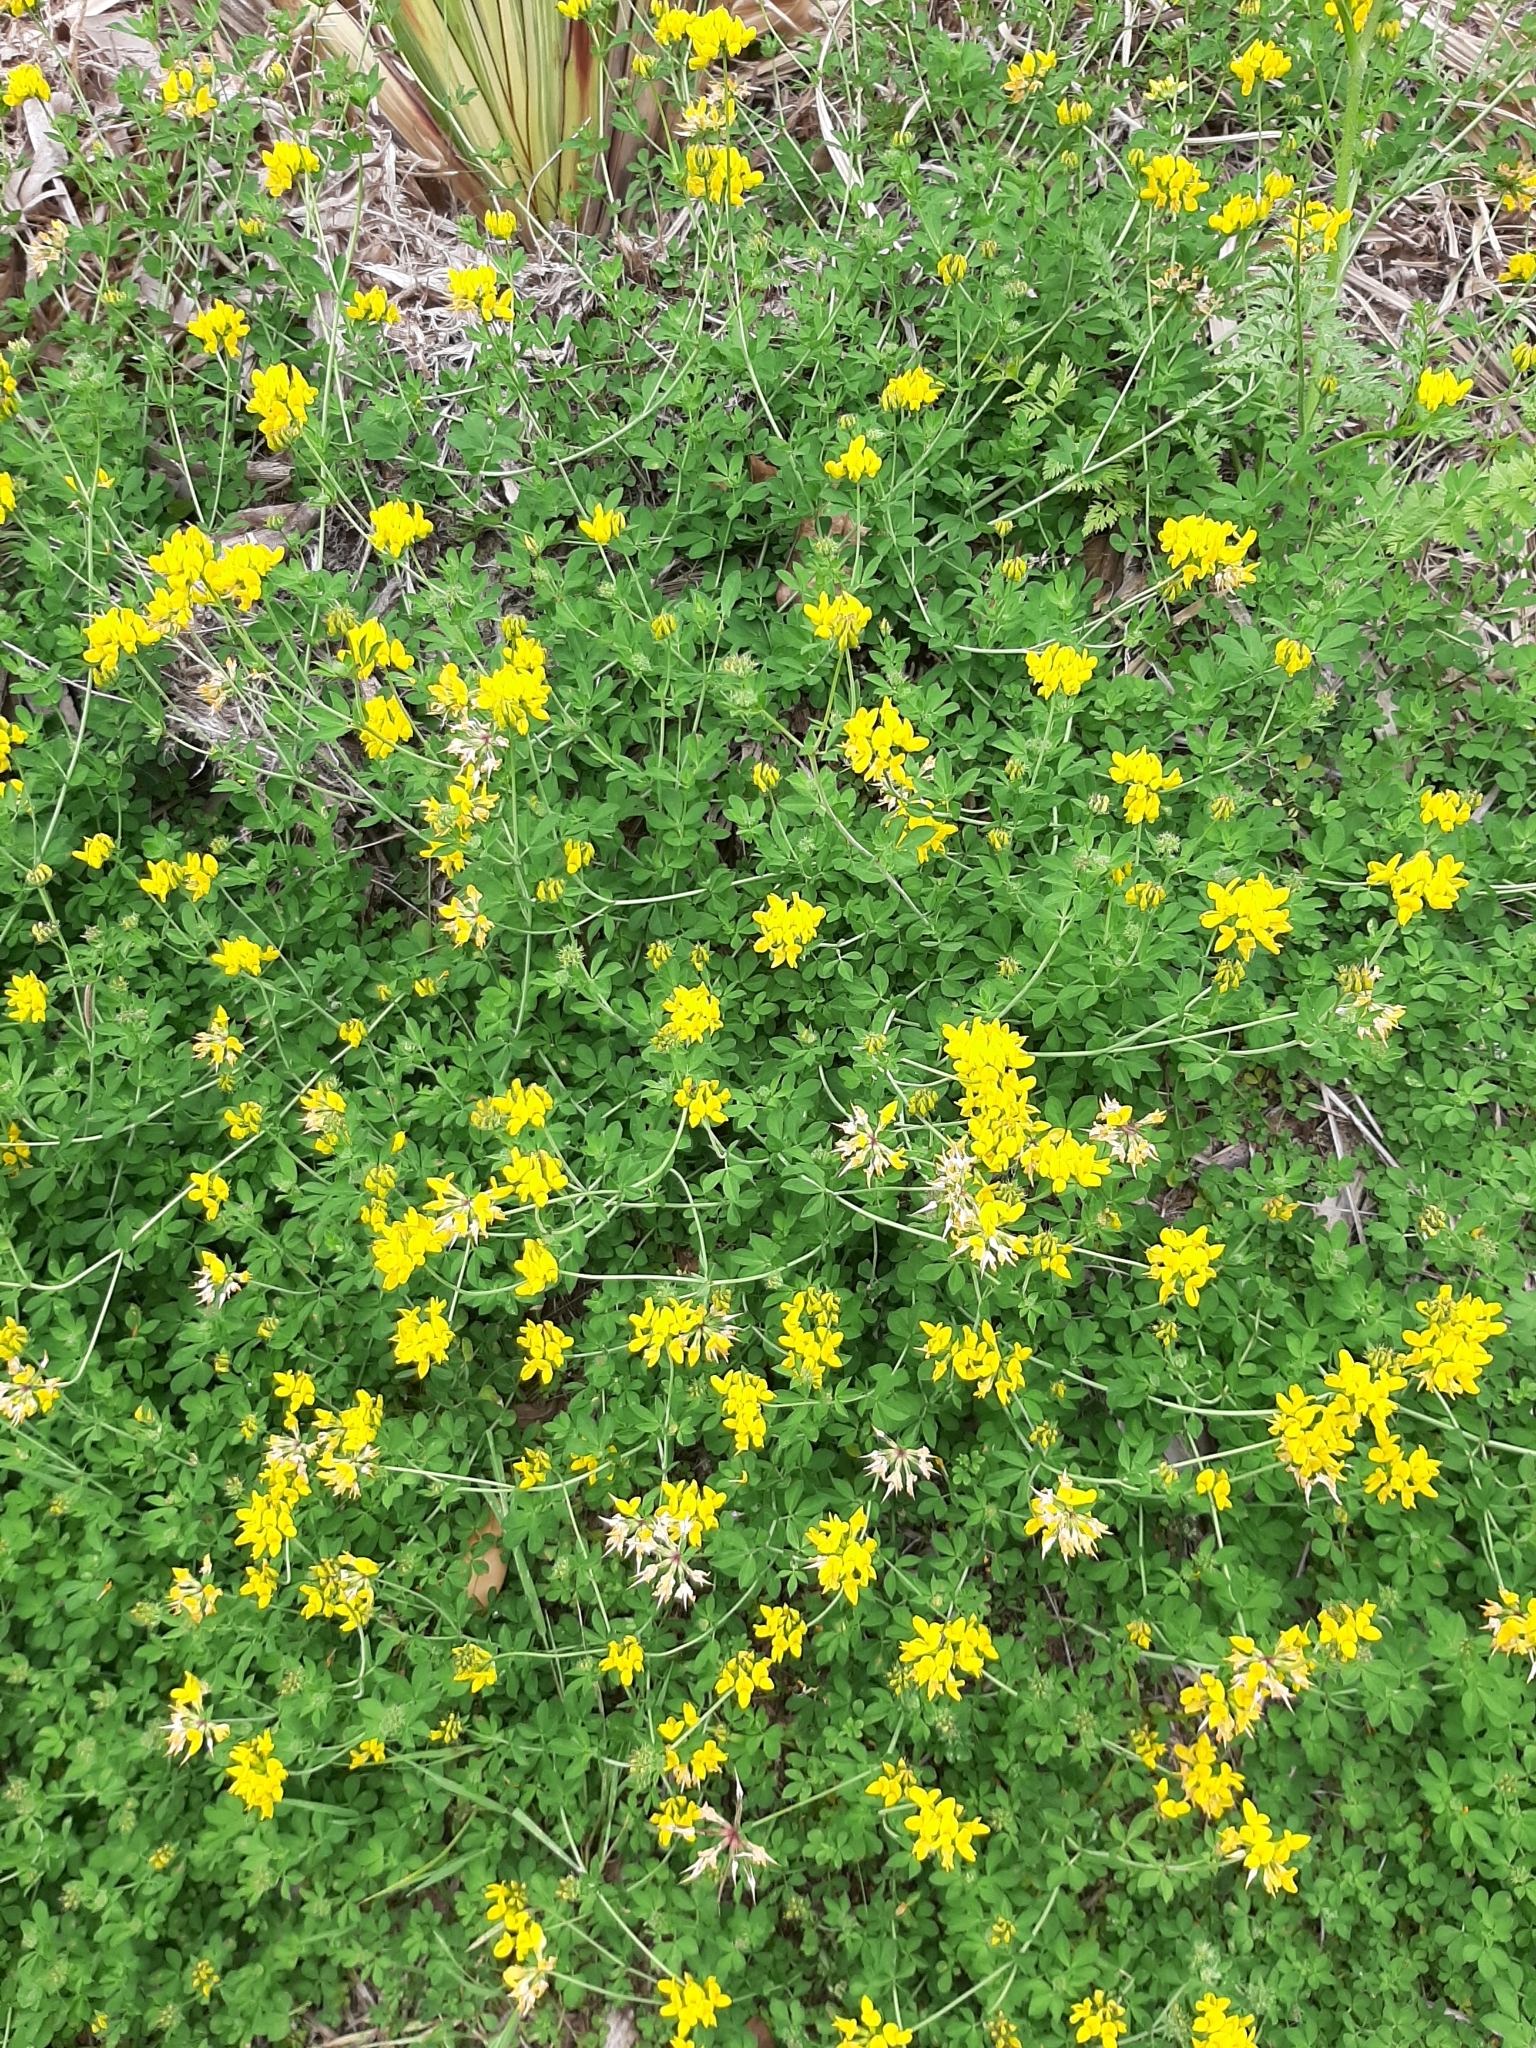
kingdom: Plantae
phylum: Tracheophyta
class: Magnoliopsida
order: Fabales
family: Fabaceae
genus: Lotus
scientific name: Lotus pedunculatus
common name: Greater birdsfoot-trefoil
